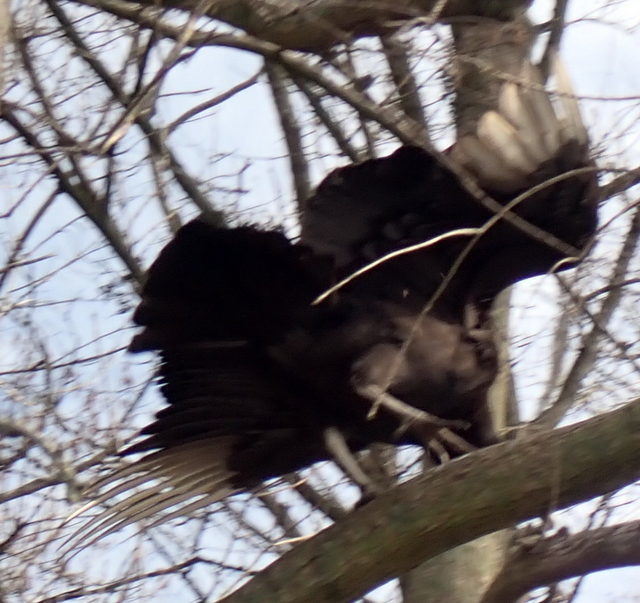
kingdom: Animalia
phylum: Chordata
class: Aves
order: Accipitriformes
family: Cathartidae
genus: Coragyps
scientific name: Coragyps atratus
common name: Black vulture
